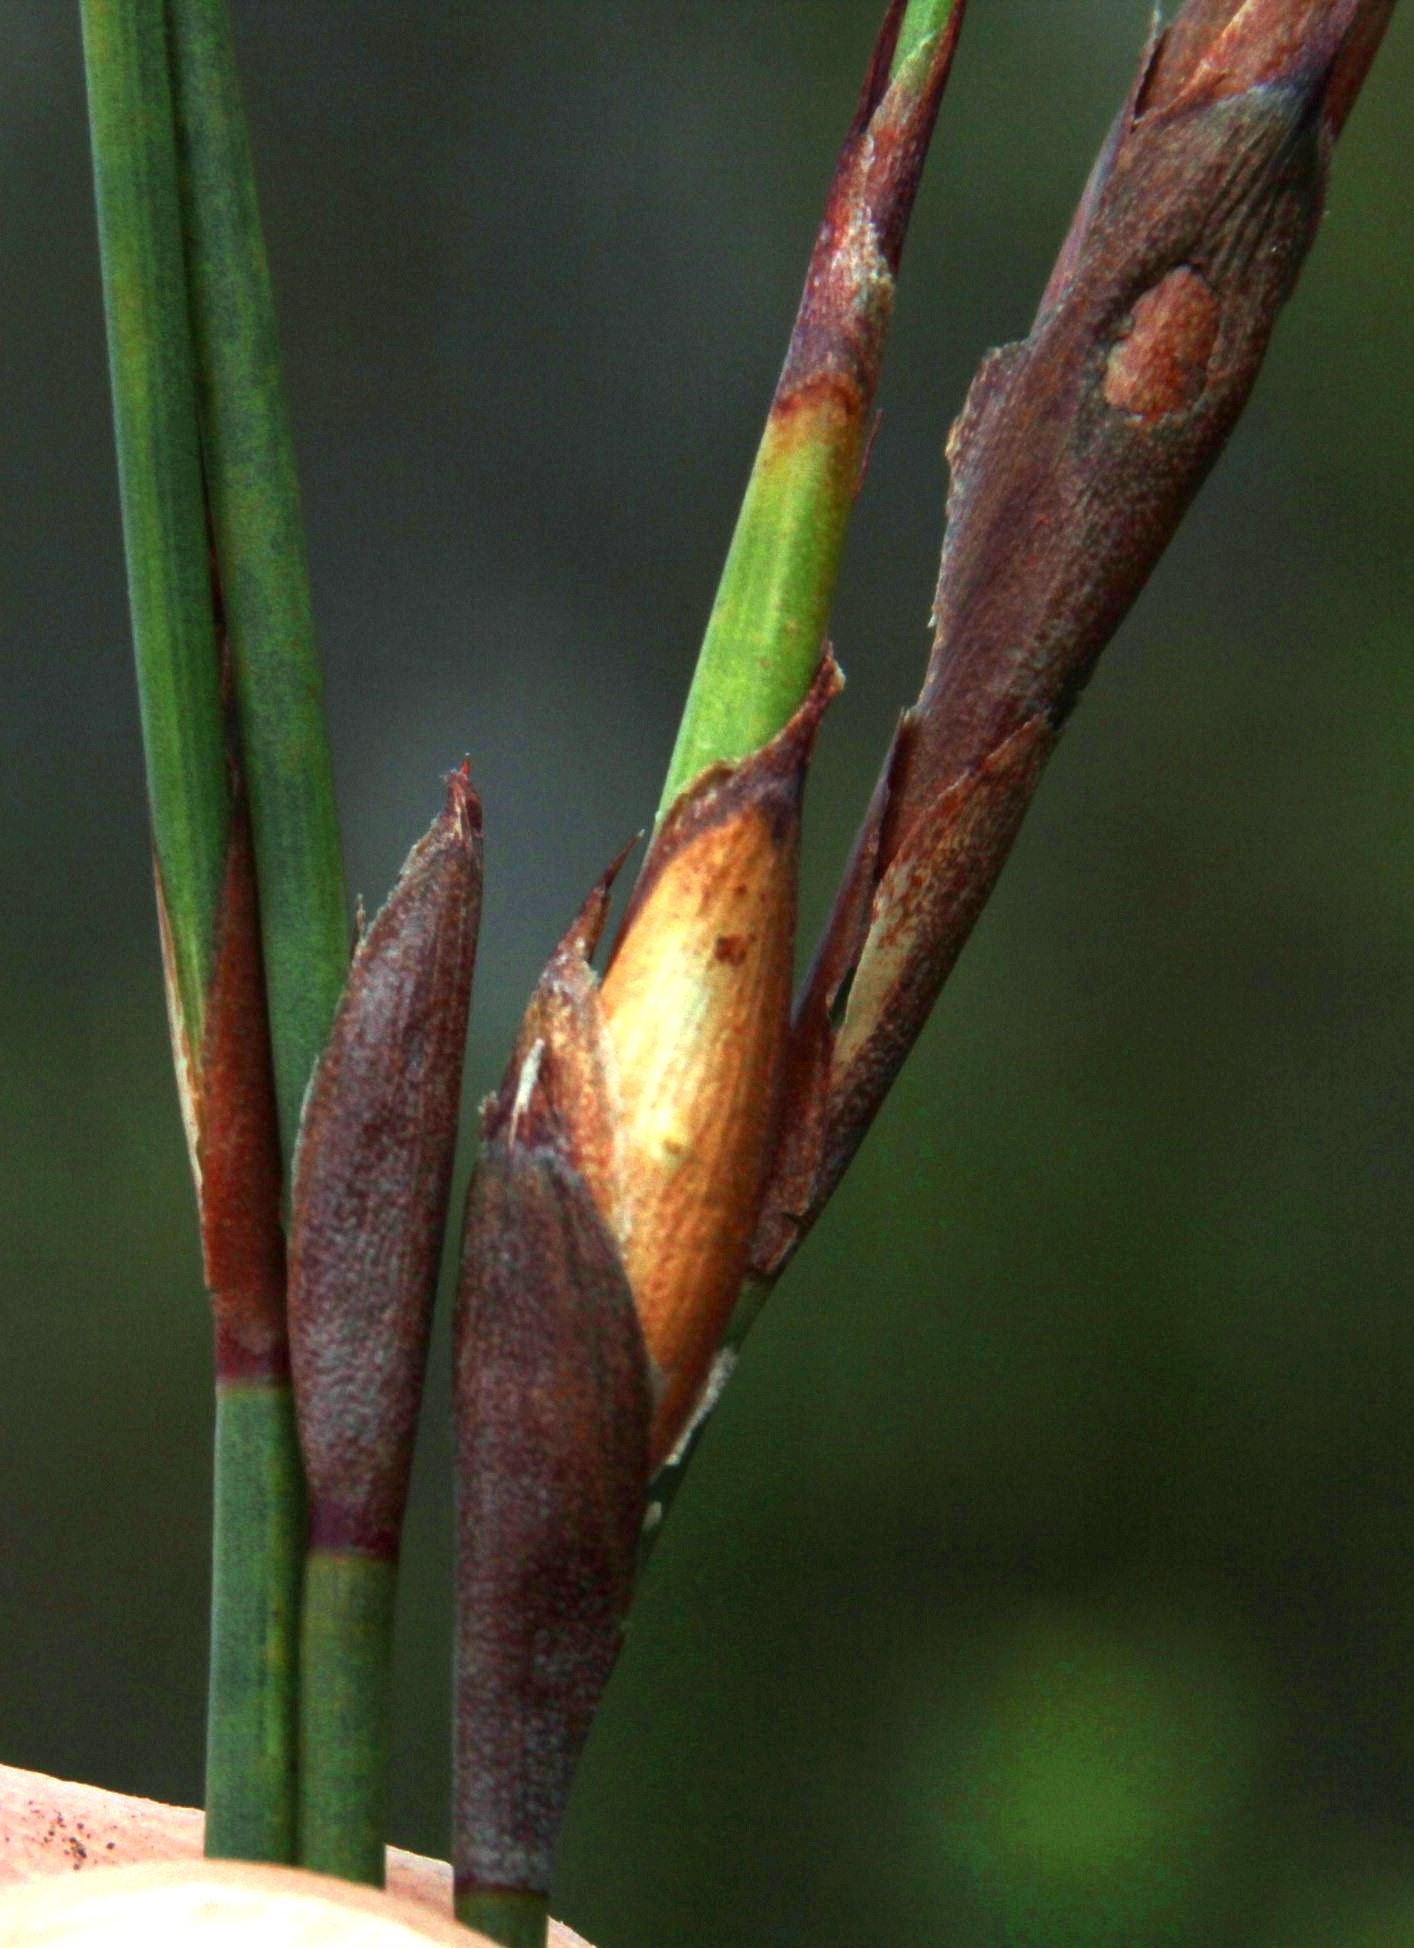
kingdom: Plantae
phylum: Tracheophyta
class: Liliopsida
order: Poales
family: Restionaceae
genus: Willdenowia
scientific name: Willdenowia teres
